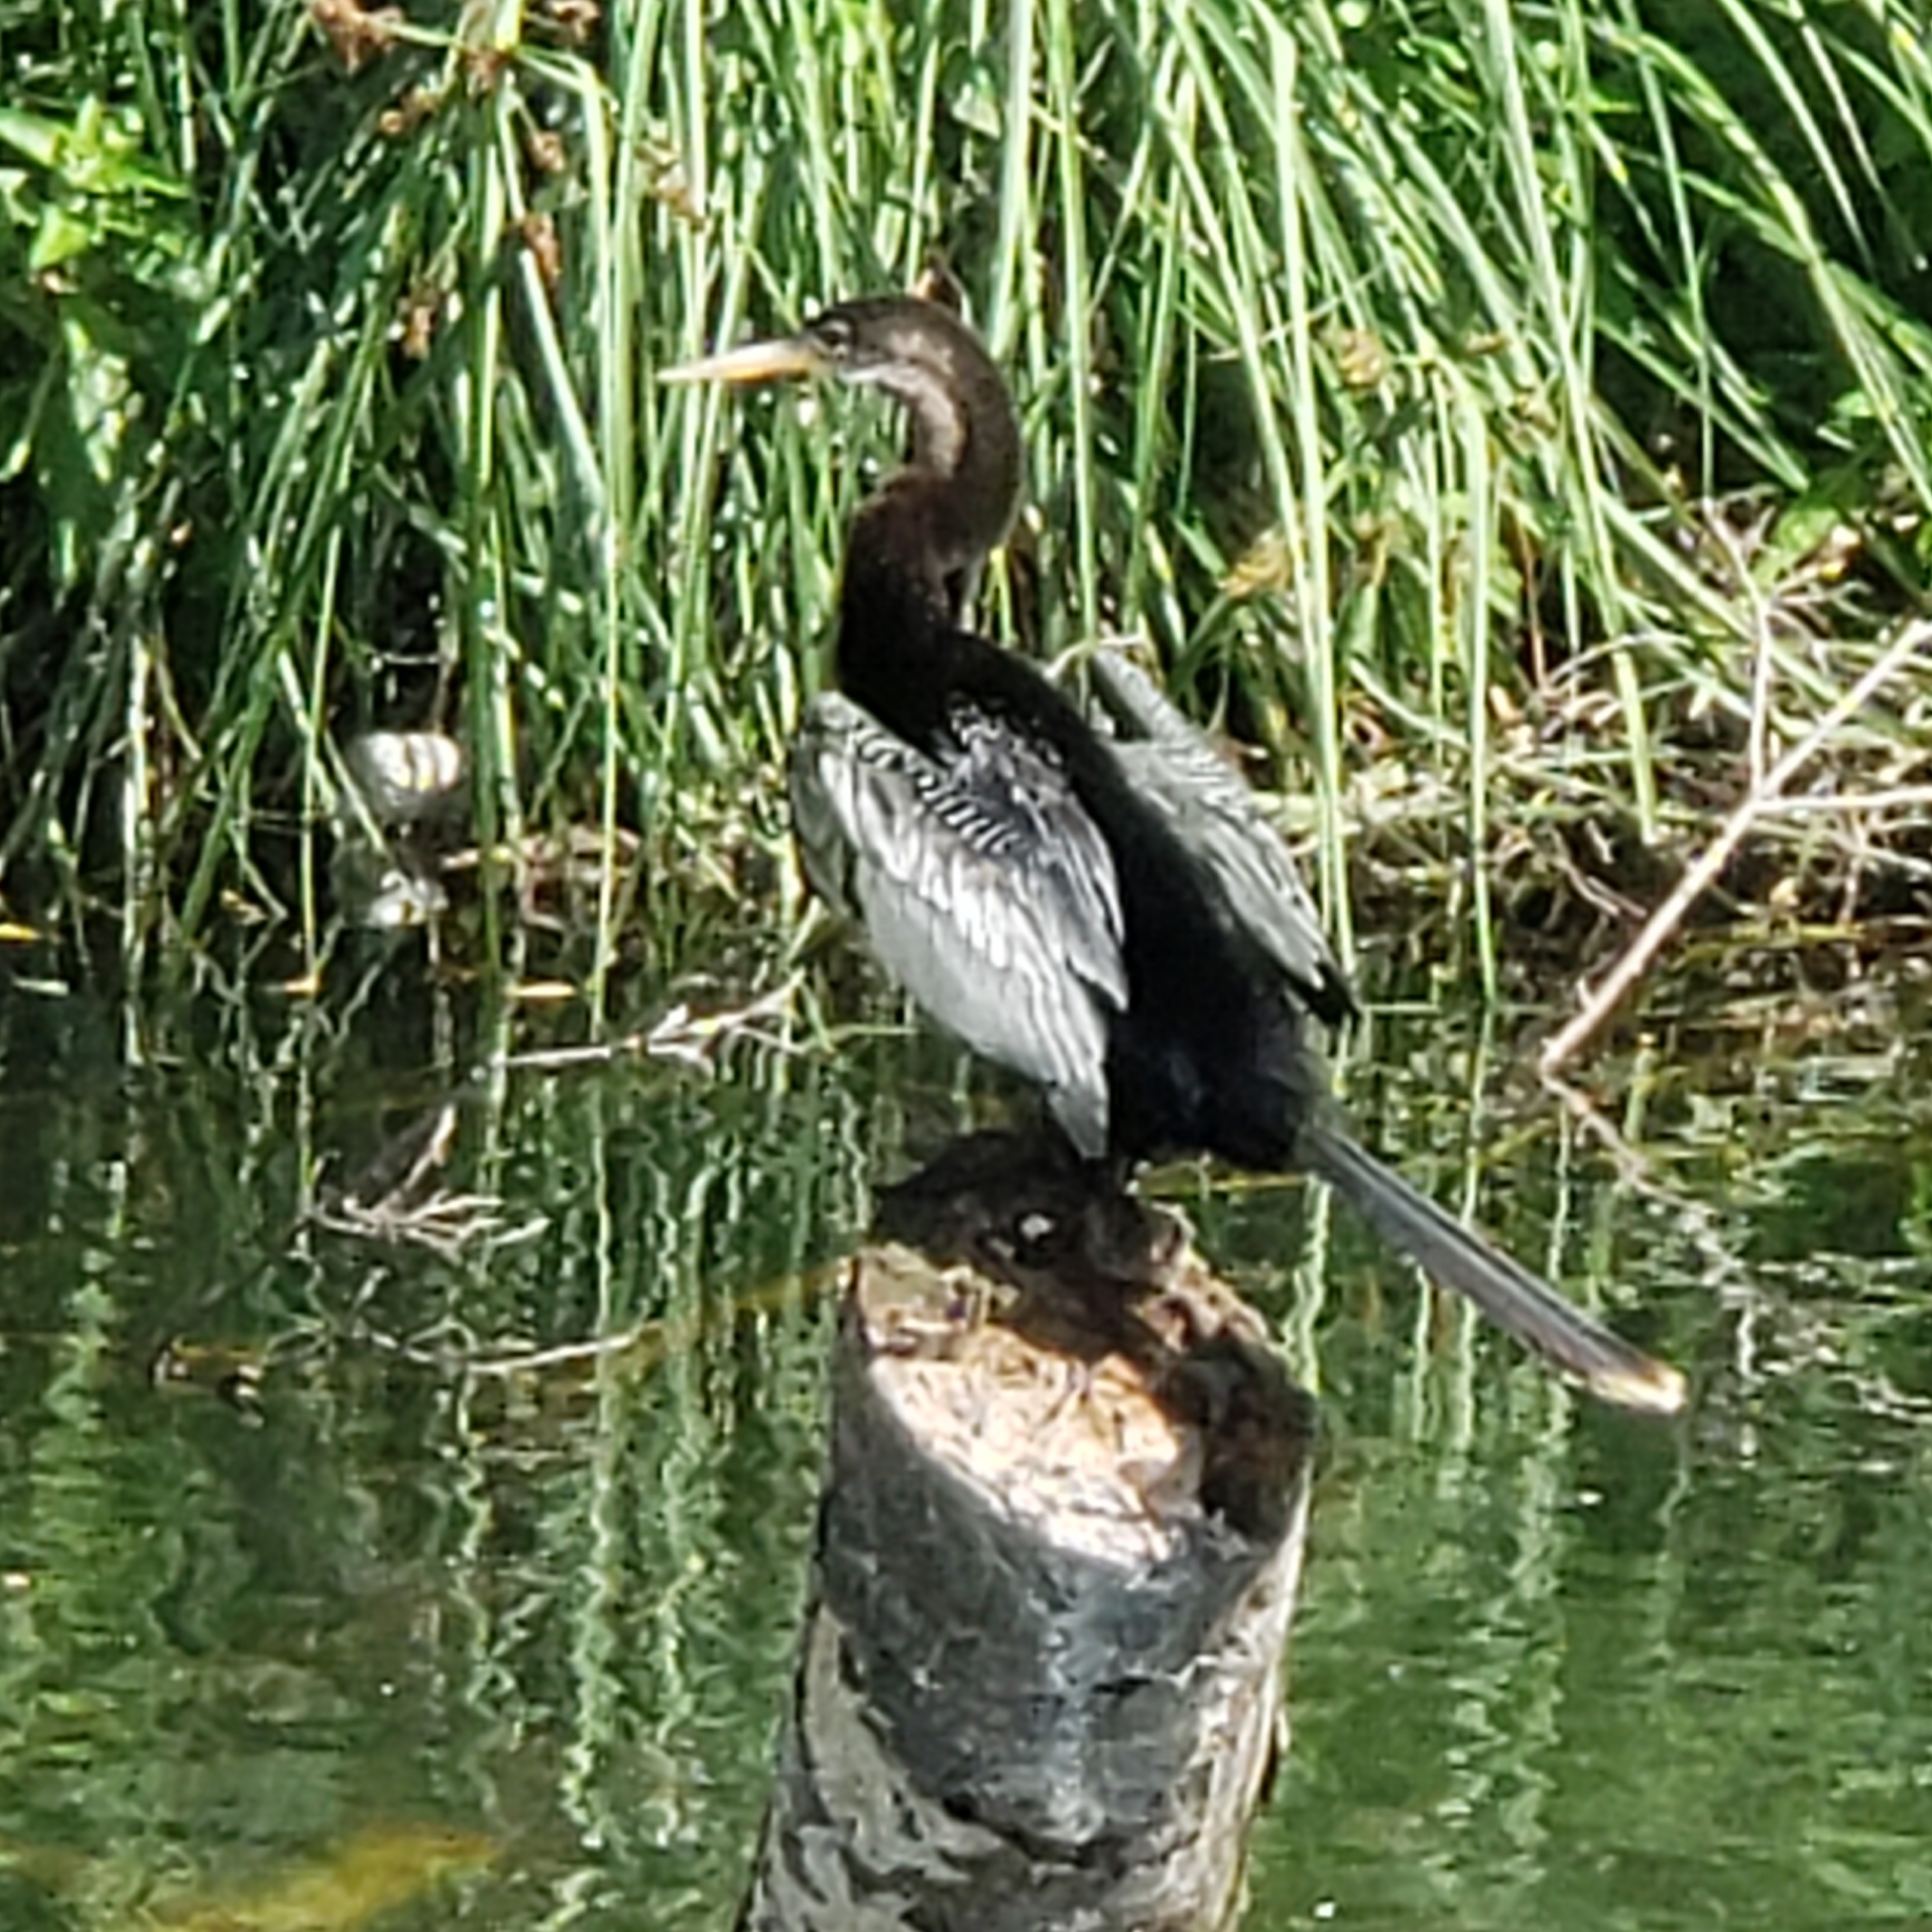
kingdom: Animalia
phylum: Chordata
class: Aves
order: Suliformes
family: Anhingidae
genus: Anhinga
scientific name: Anhinga anhinga
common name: Anhinga
